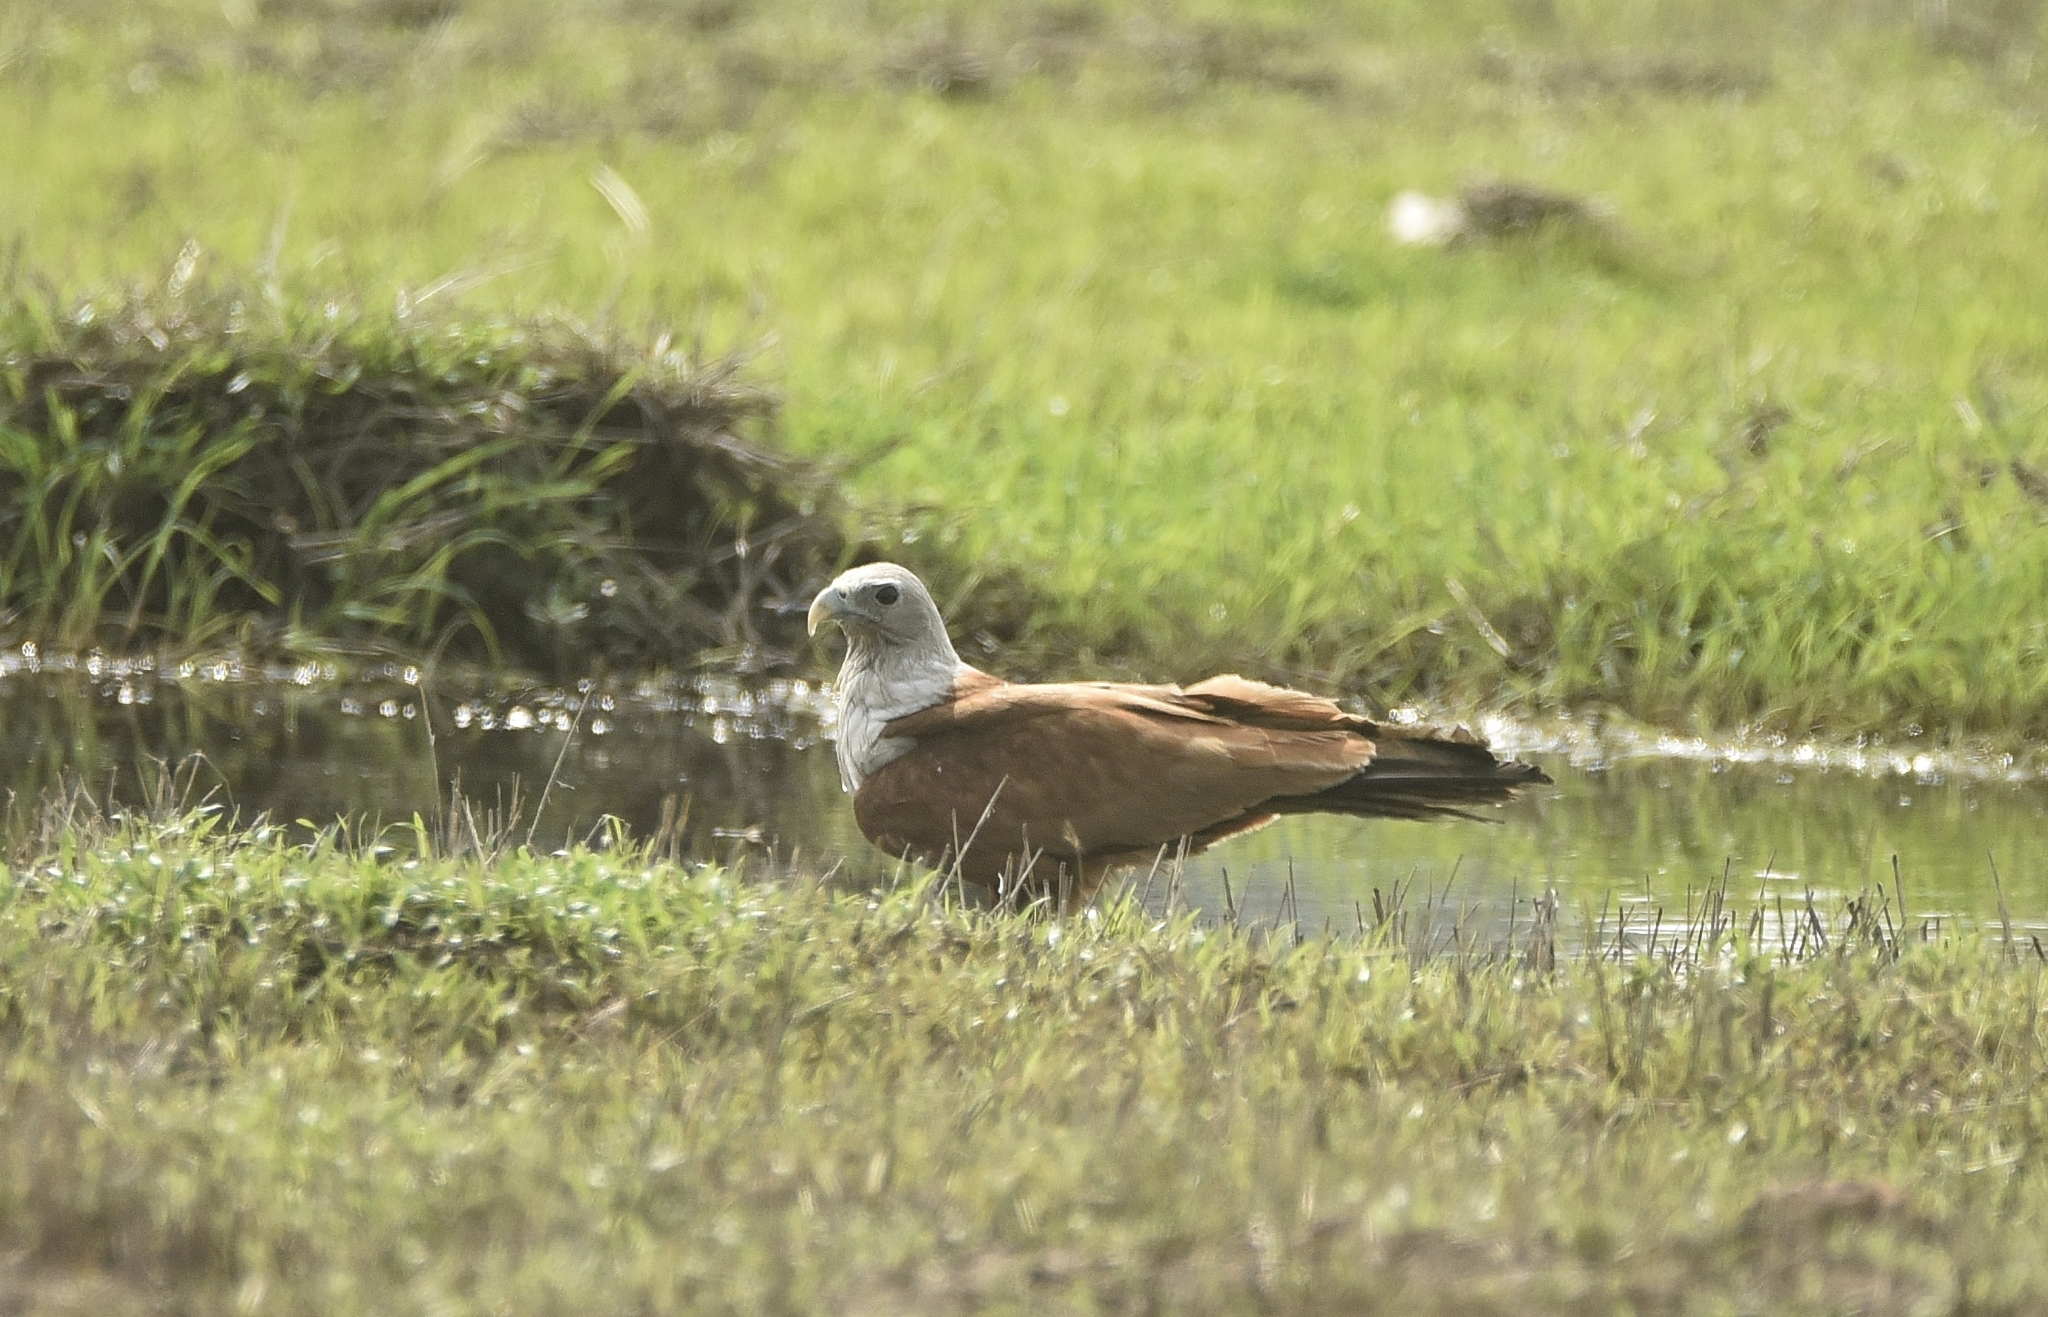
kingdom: Animalia
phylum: Chordata
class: Aves
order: Accipitriformes
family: Accipitridae
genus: Haliastur
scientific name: Haliastur indus
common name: Brahminy kite
